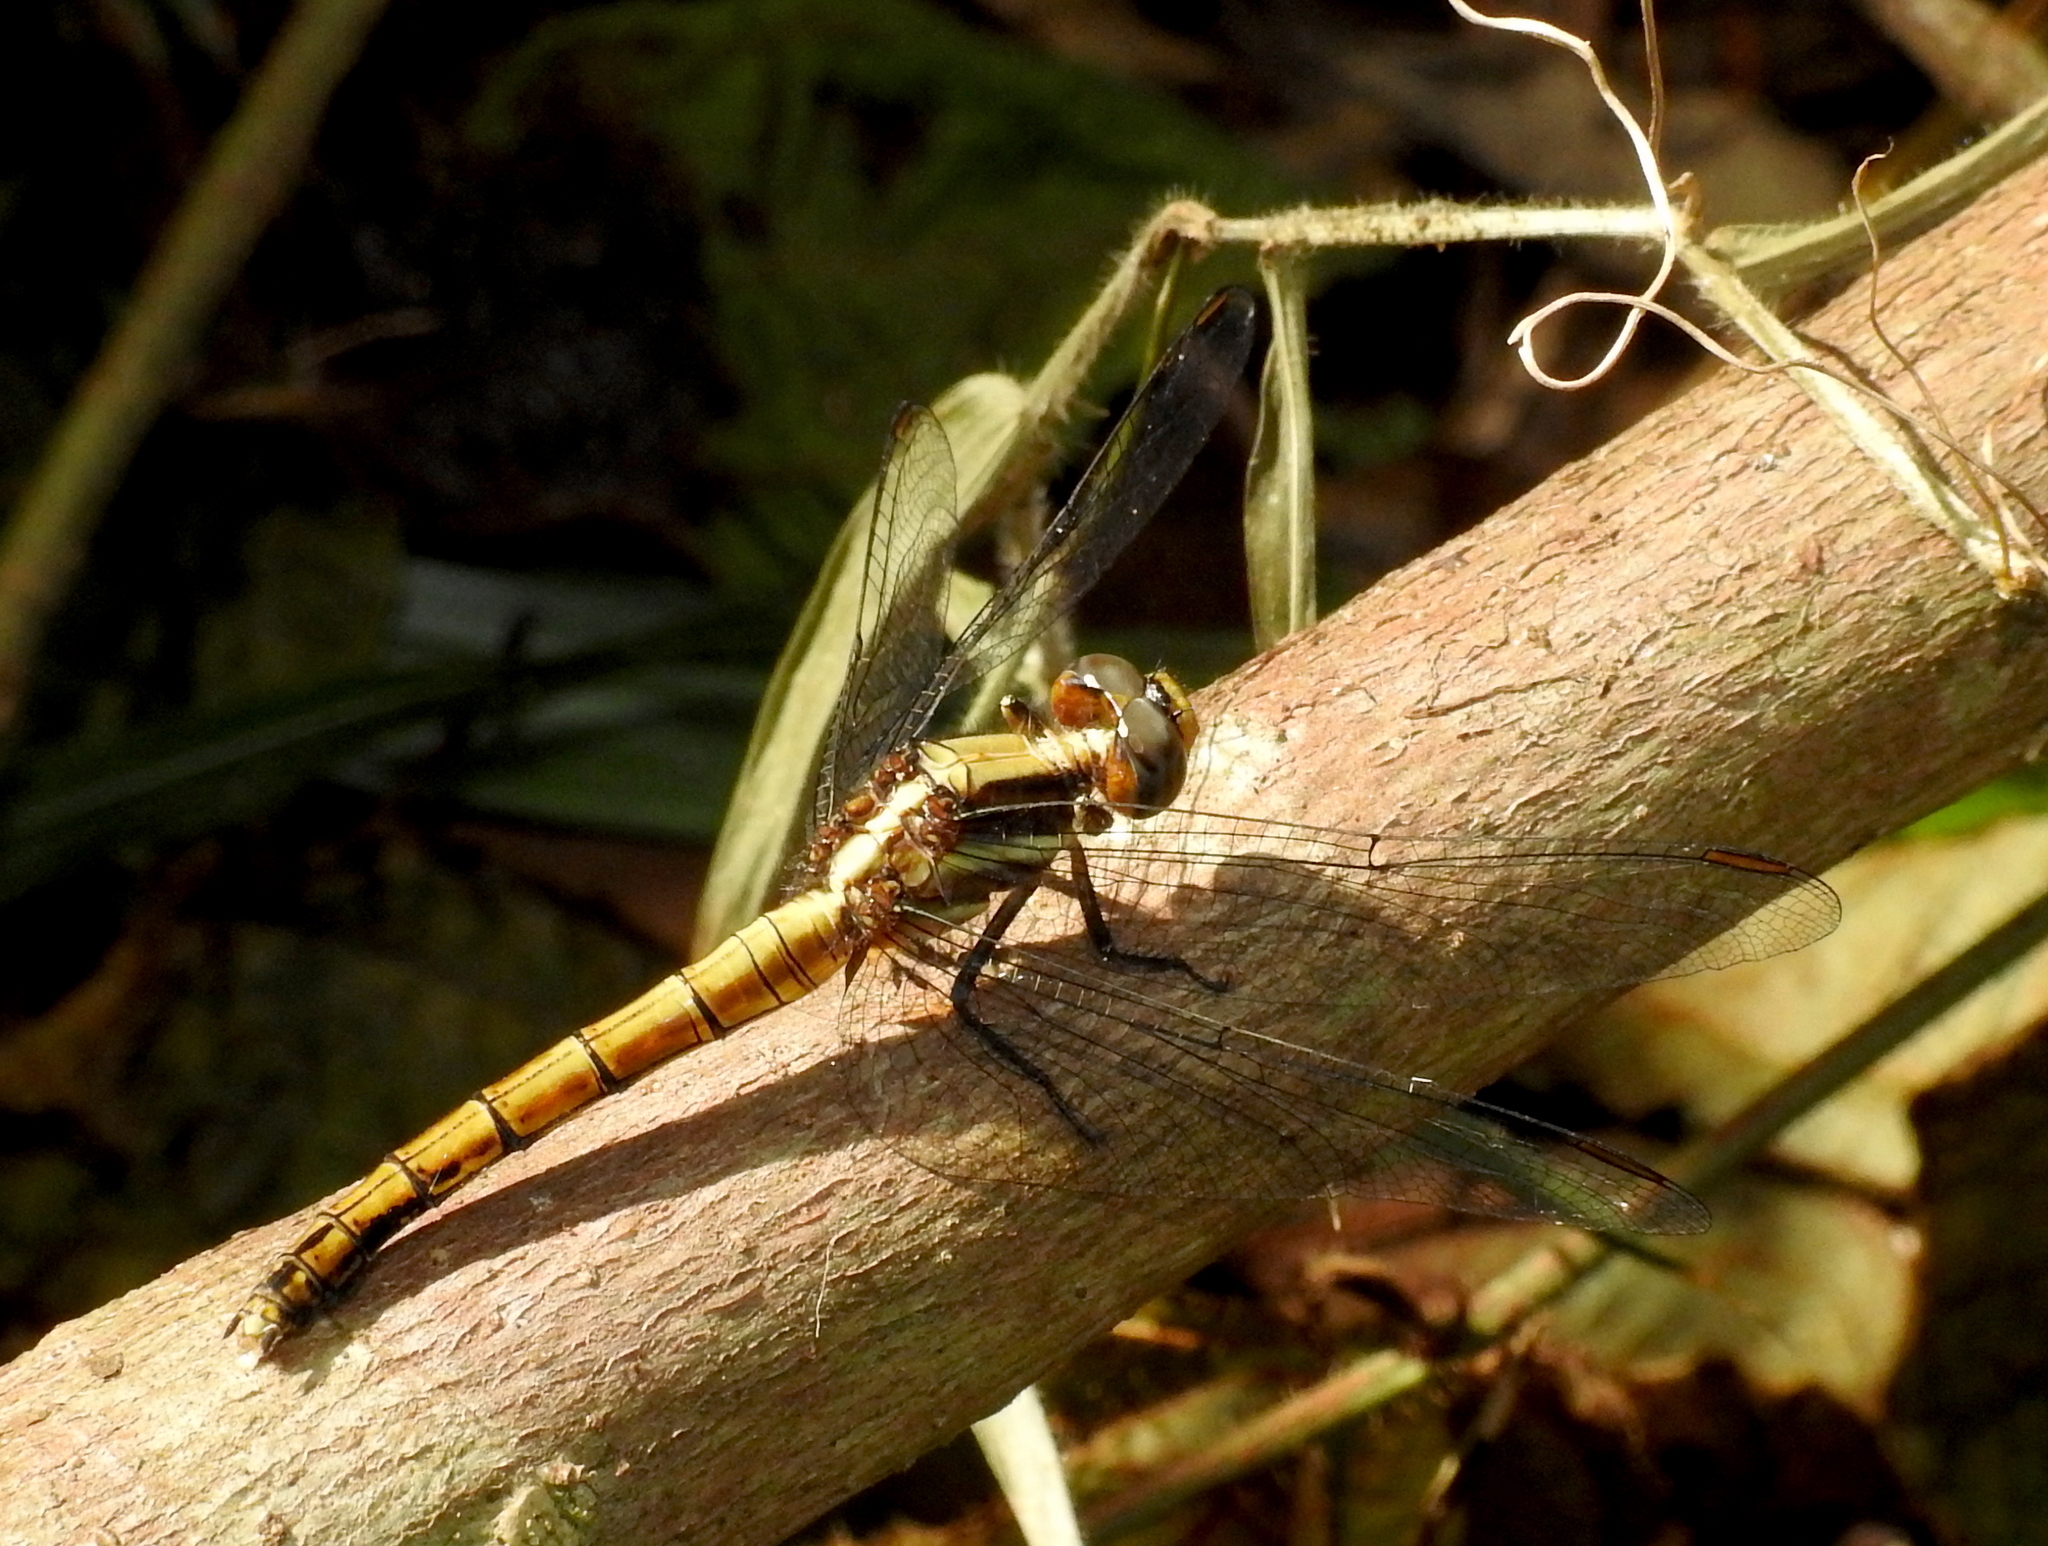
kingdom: Animalia
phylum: Arthropoda
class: Insecta
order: Odonata
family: Libellulidae
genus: Orthetrum
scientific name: Orthetrum pruinosum
